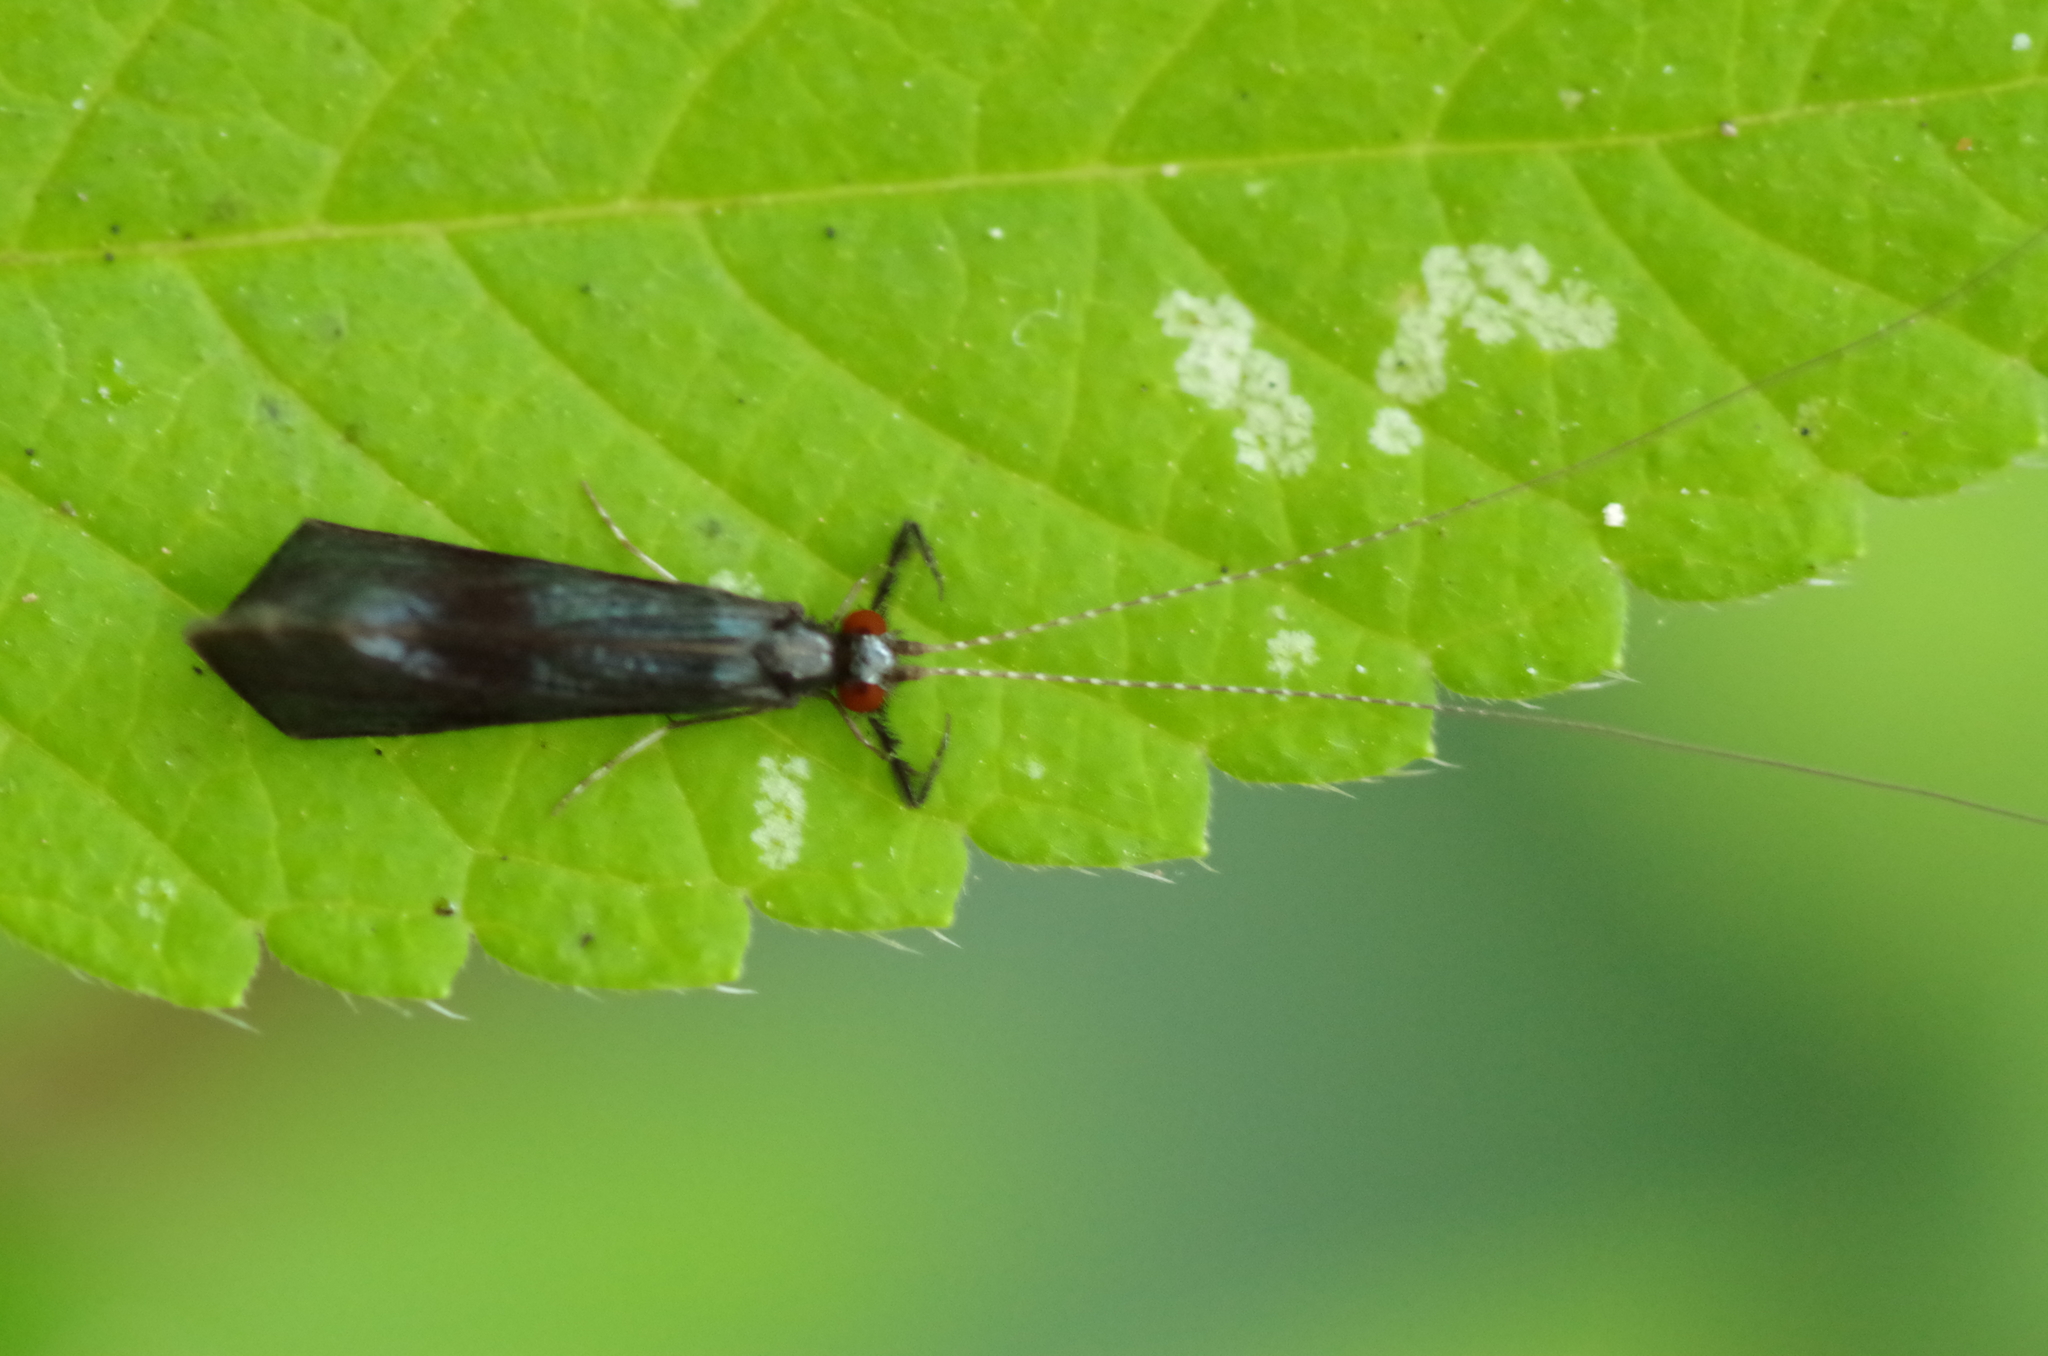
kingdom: Animalia
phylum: Arthropoda
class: Insecta
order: Trichoptera
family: Leptoceridae
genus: Mystacides
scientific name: Mystacides azureus
